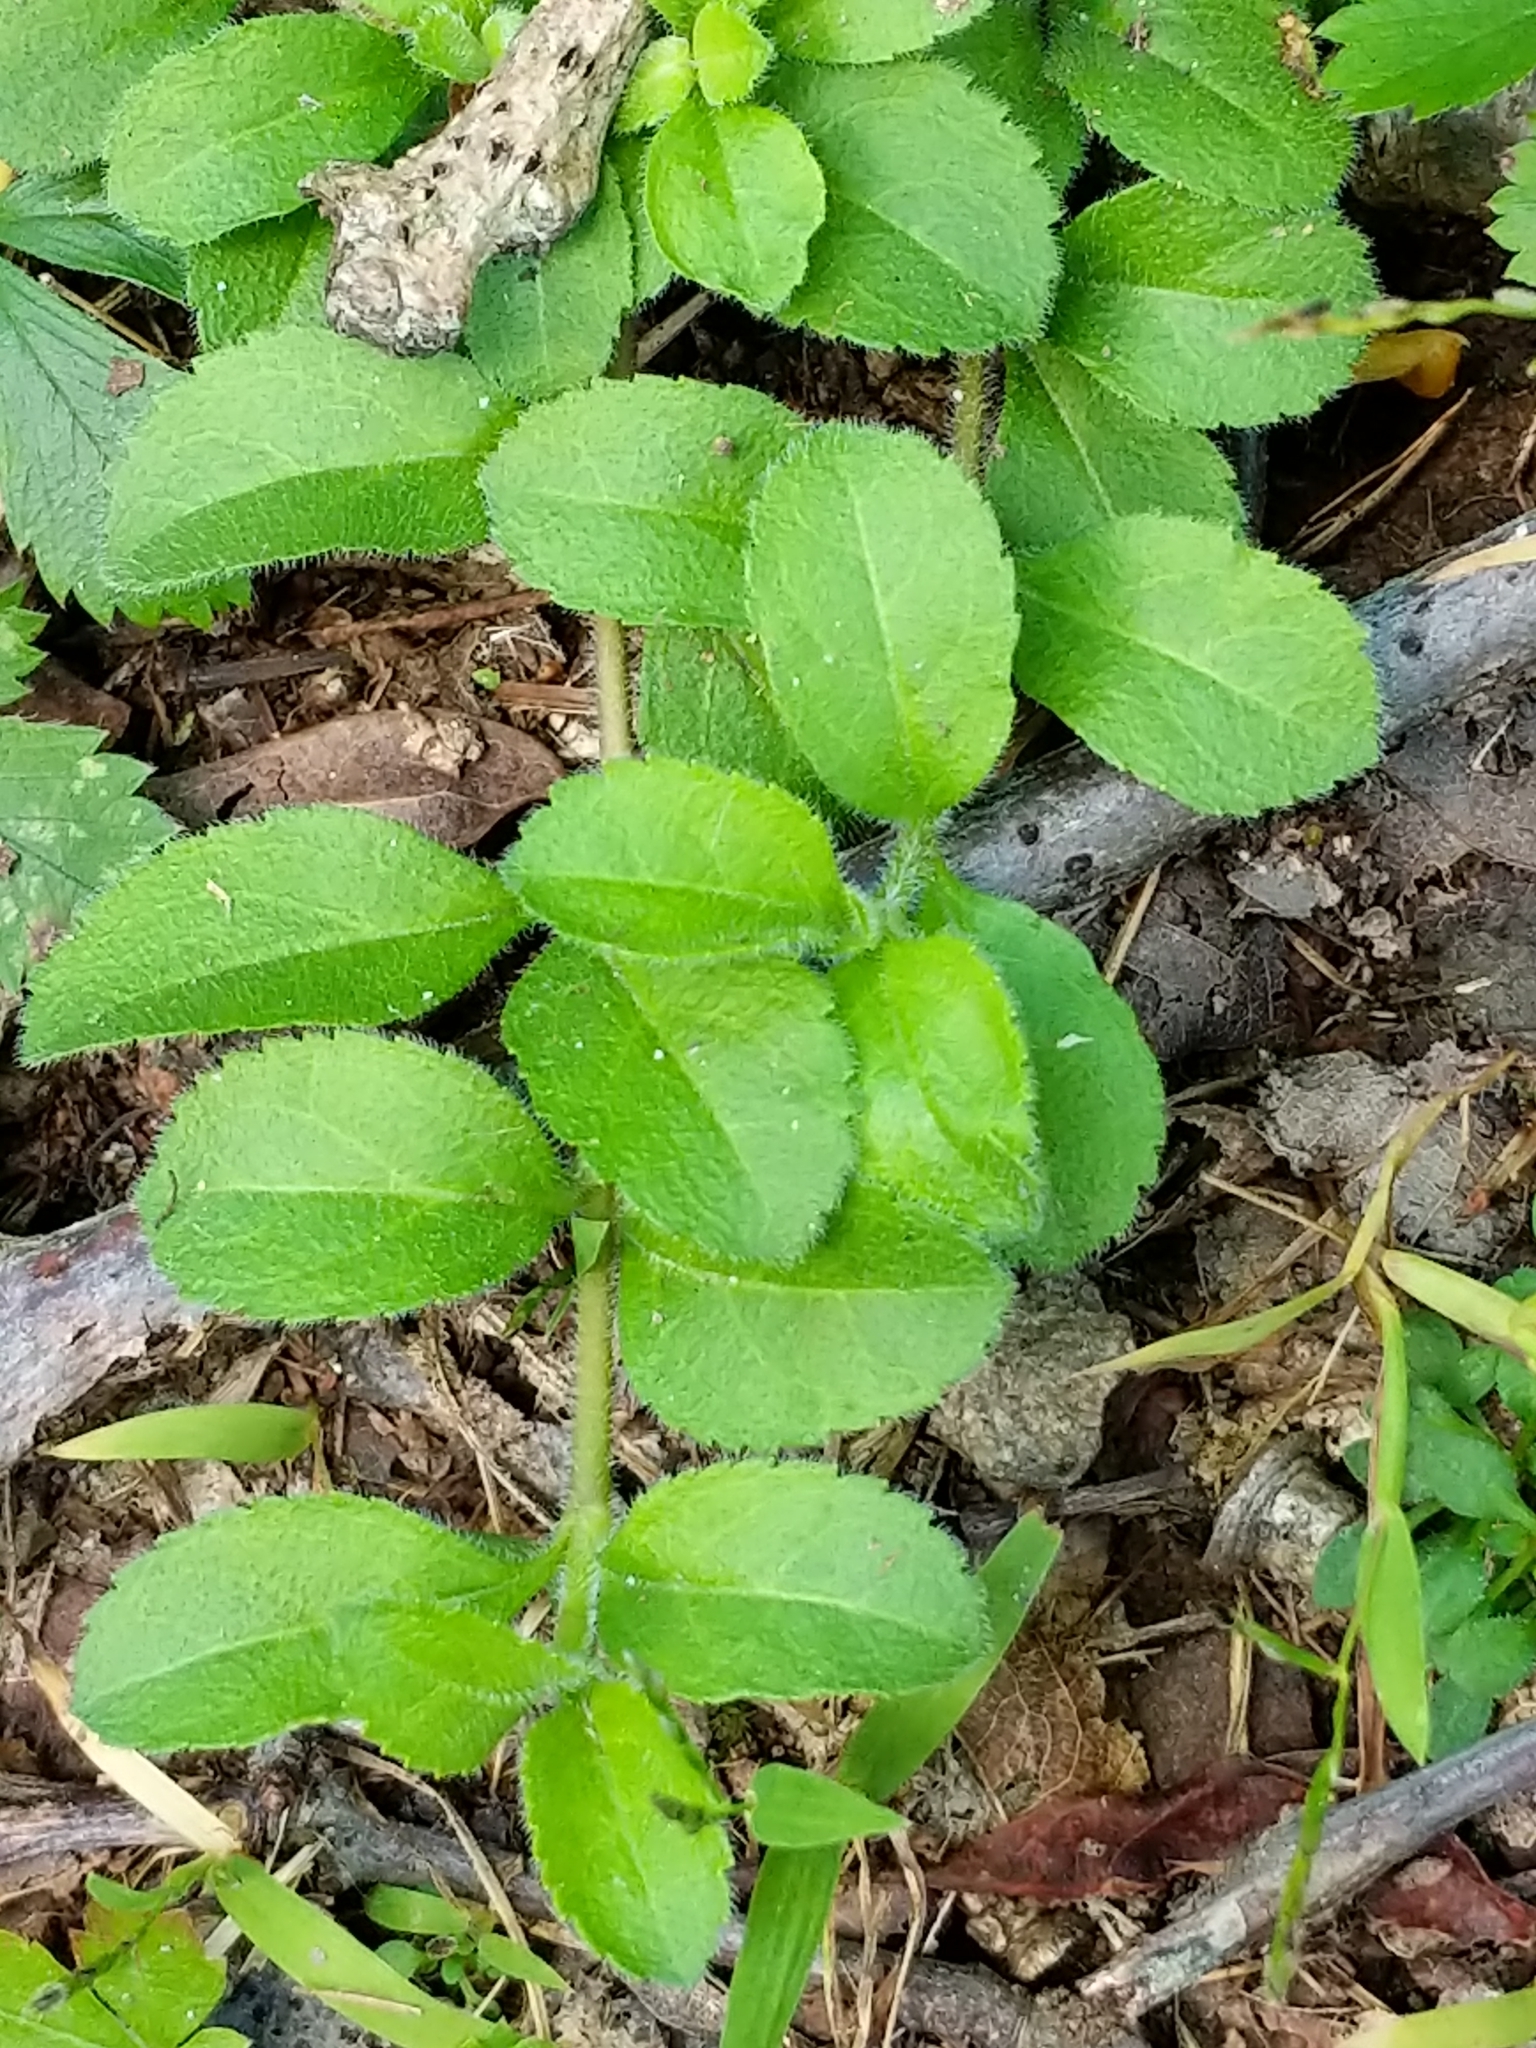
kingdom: Plantae
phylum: Tracheophyta
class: Magnoliopsida
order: Lamiales
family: Plantaginaceae
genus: Veronica
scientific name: Veronica officinalis
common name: Common speedwell
